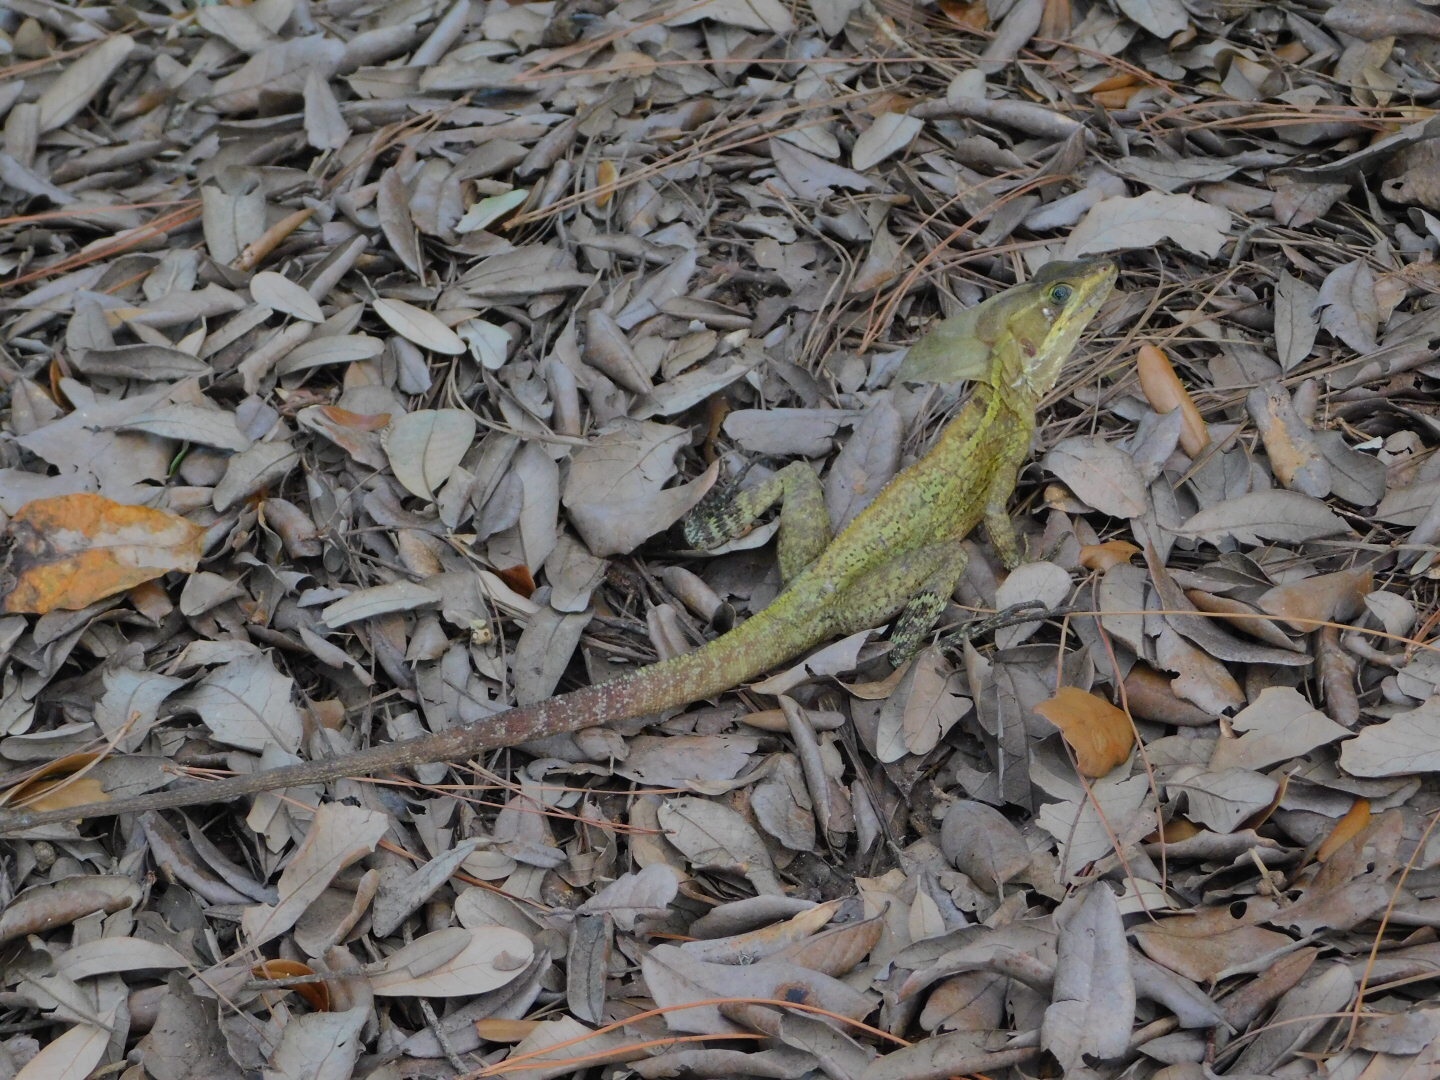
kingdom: Animalia
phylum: Chordata
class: Squamata
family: Corytophanidae
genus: Basiliscus
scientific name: Basiliscus vittatus
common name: Brown basilisk
